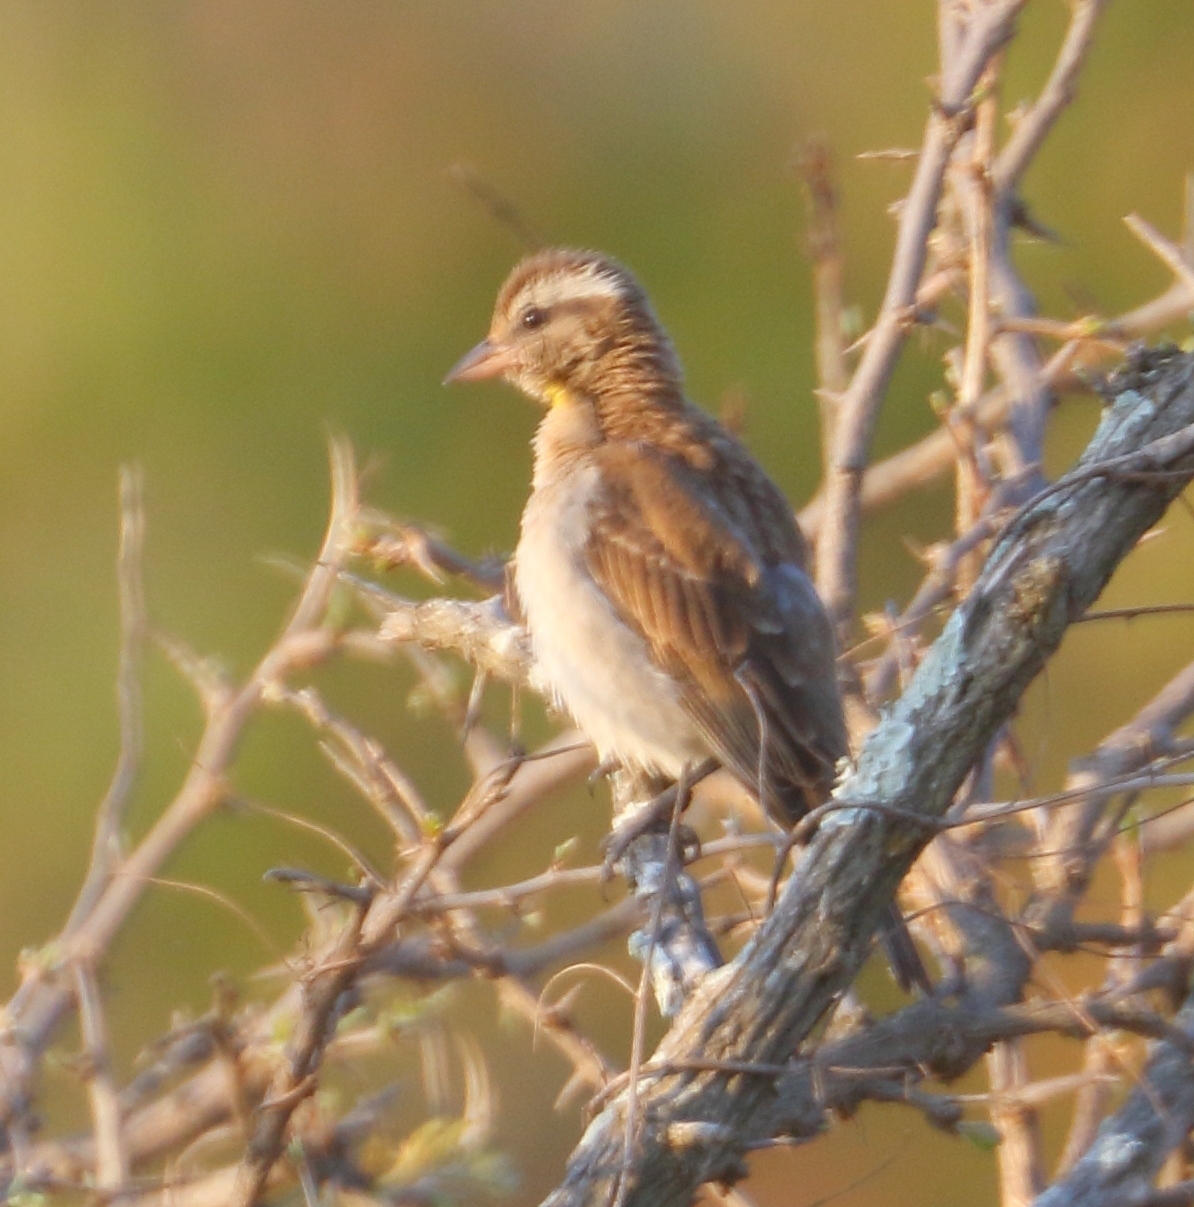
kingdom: Animalia
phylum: Chordata
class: Aves
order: Passeriformes
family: Passeridae
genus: Gymnoris
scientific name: Gymnoris superciliaris
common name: Yellow-throated petronia
